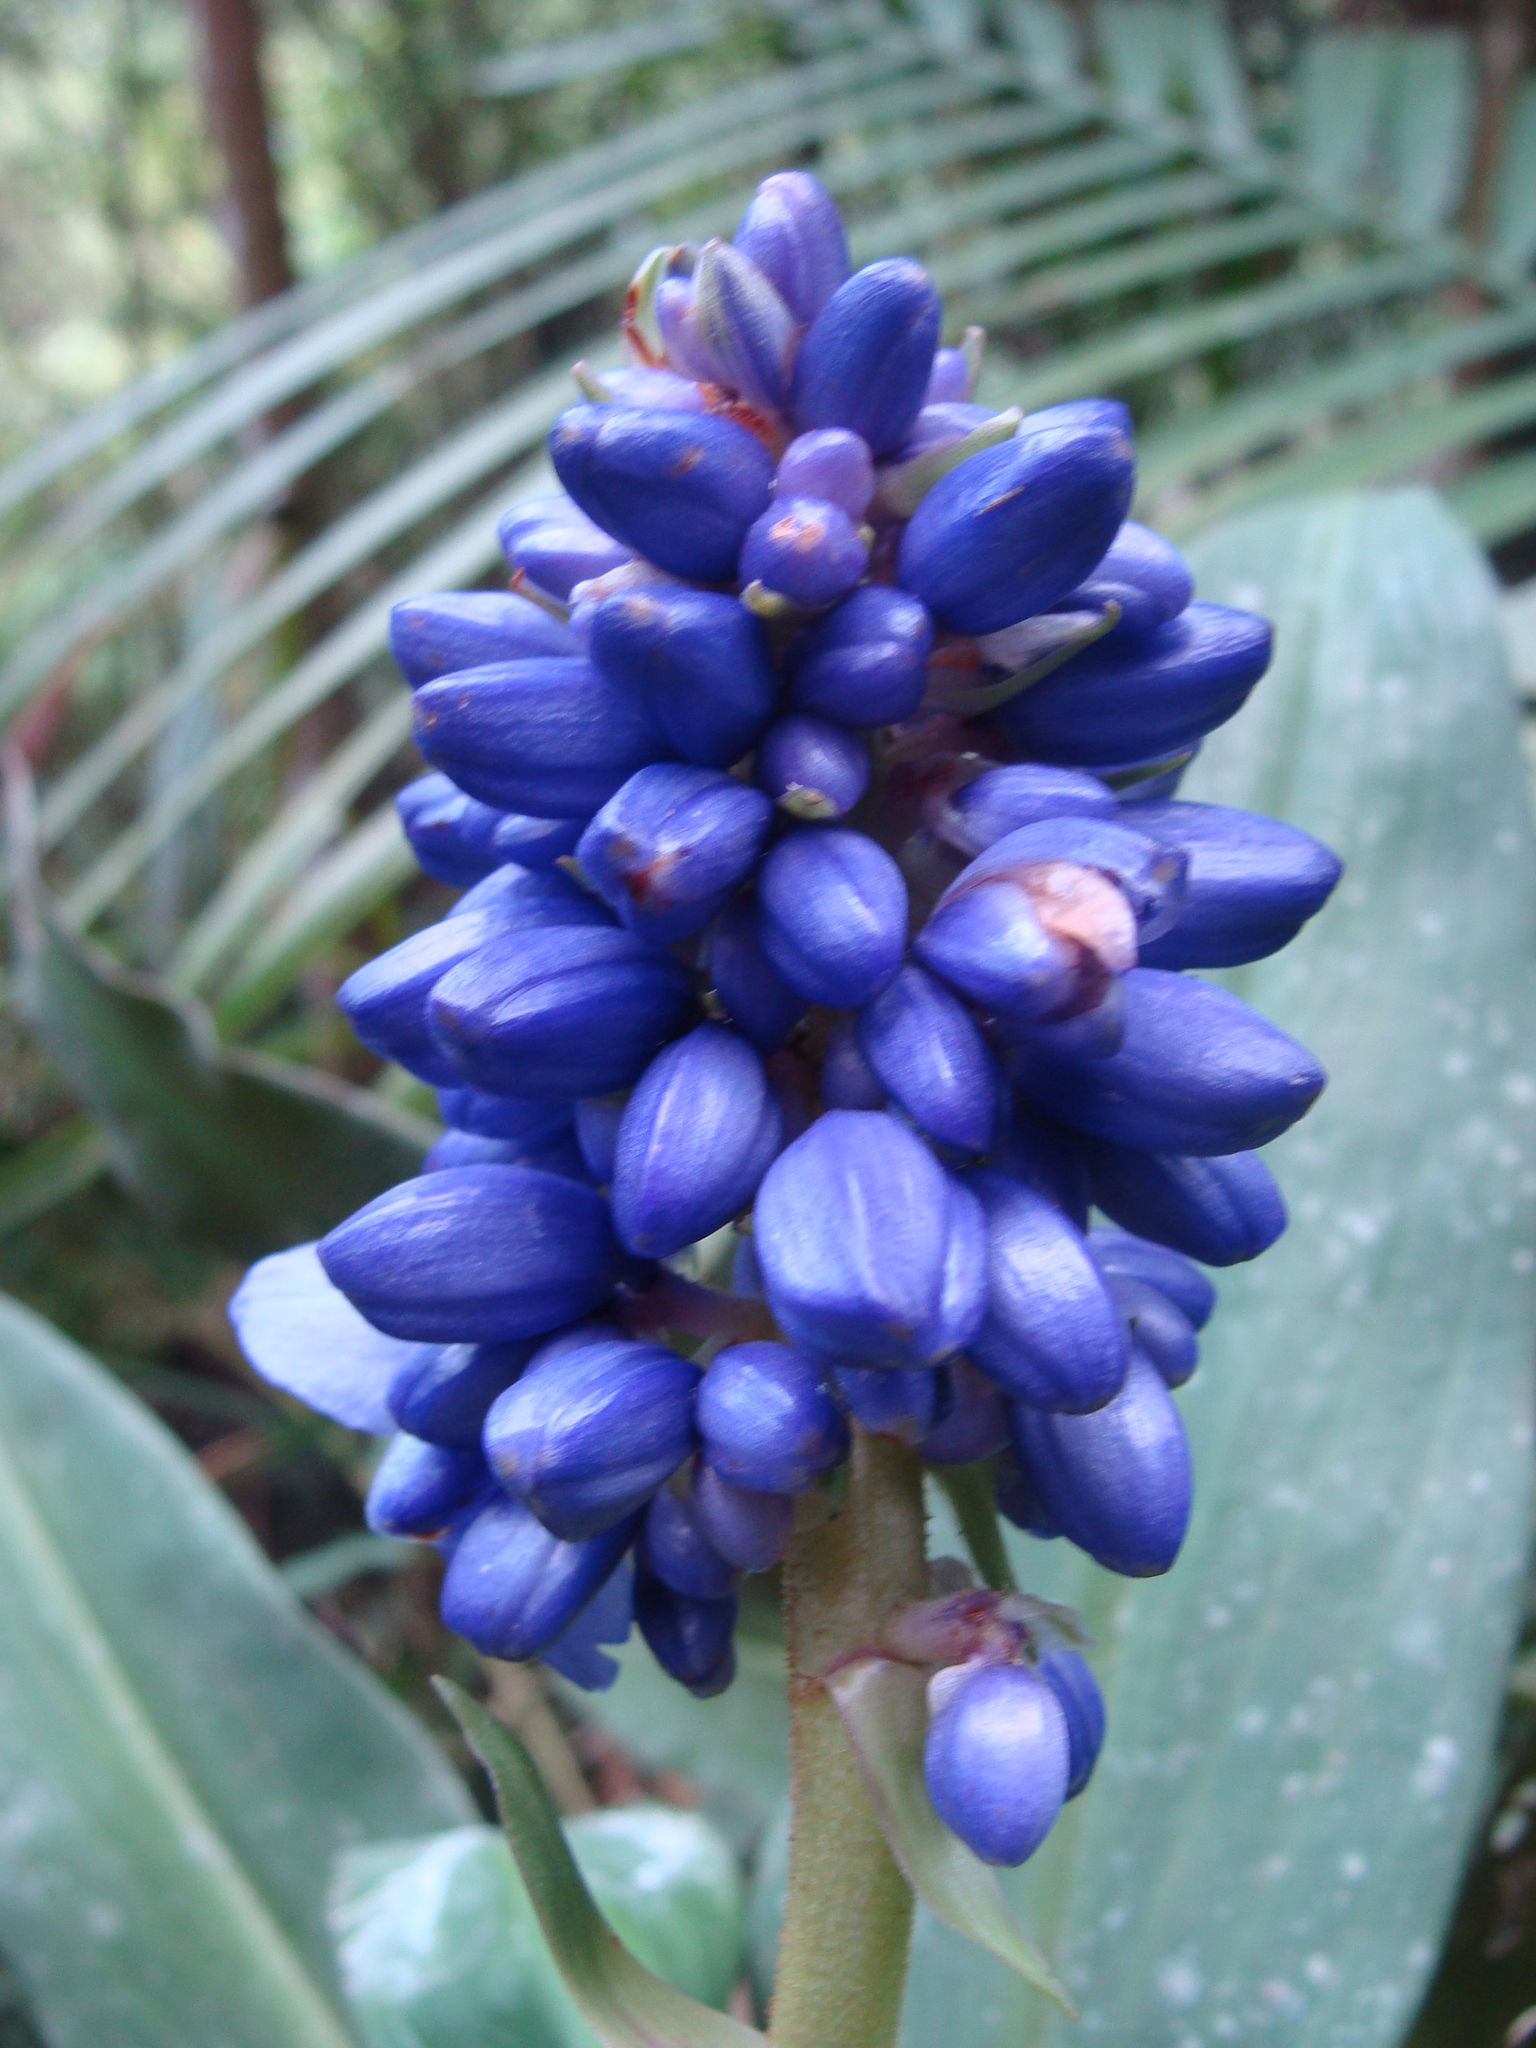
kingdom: Plantae
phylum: Tracheophyta
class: Liliopsida
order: Commelinales
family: Commelinaceae
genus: Dichorisandra
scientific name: Dichorisandra paranaensis
